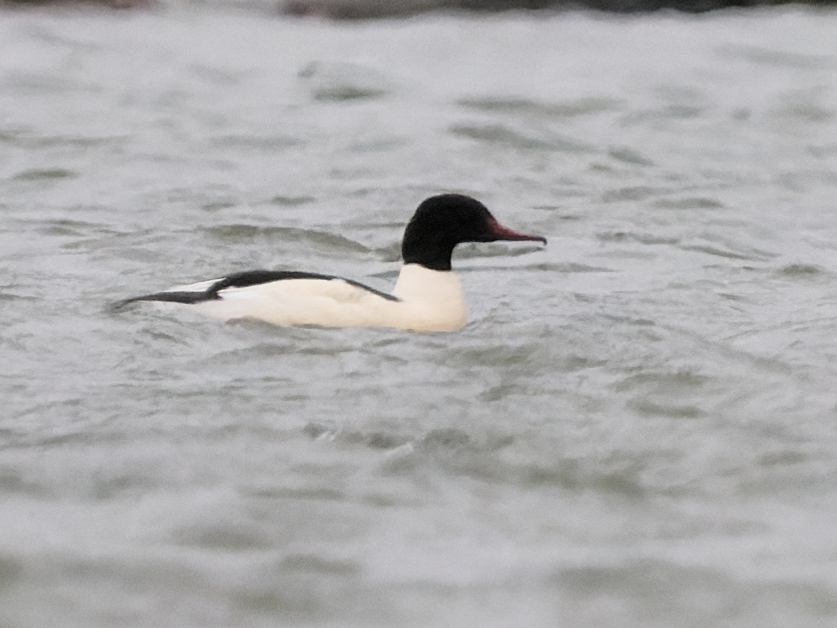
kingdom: Animalia
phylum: Chordata
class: Aves
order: Anseriformes
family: Anatidae
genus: Mergus
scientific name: Mergus merganser
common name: Common merganser
